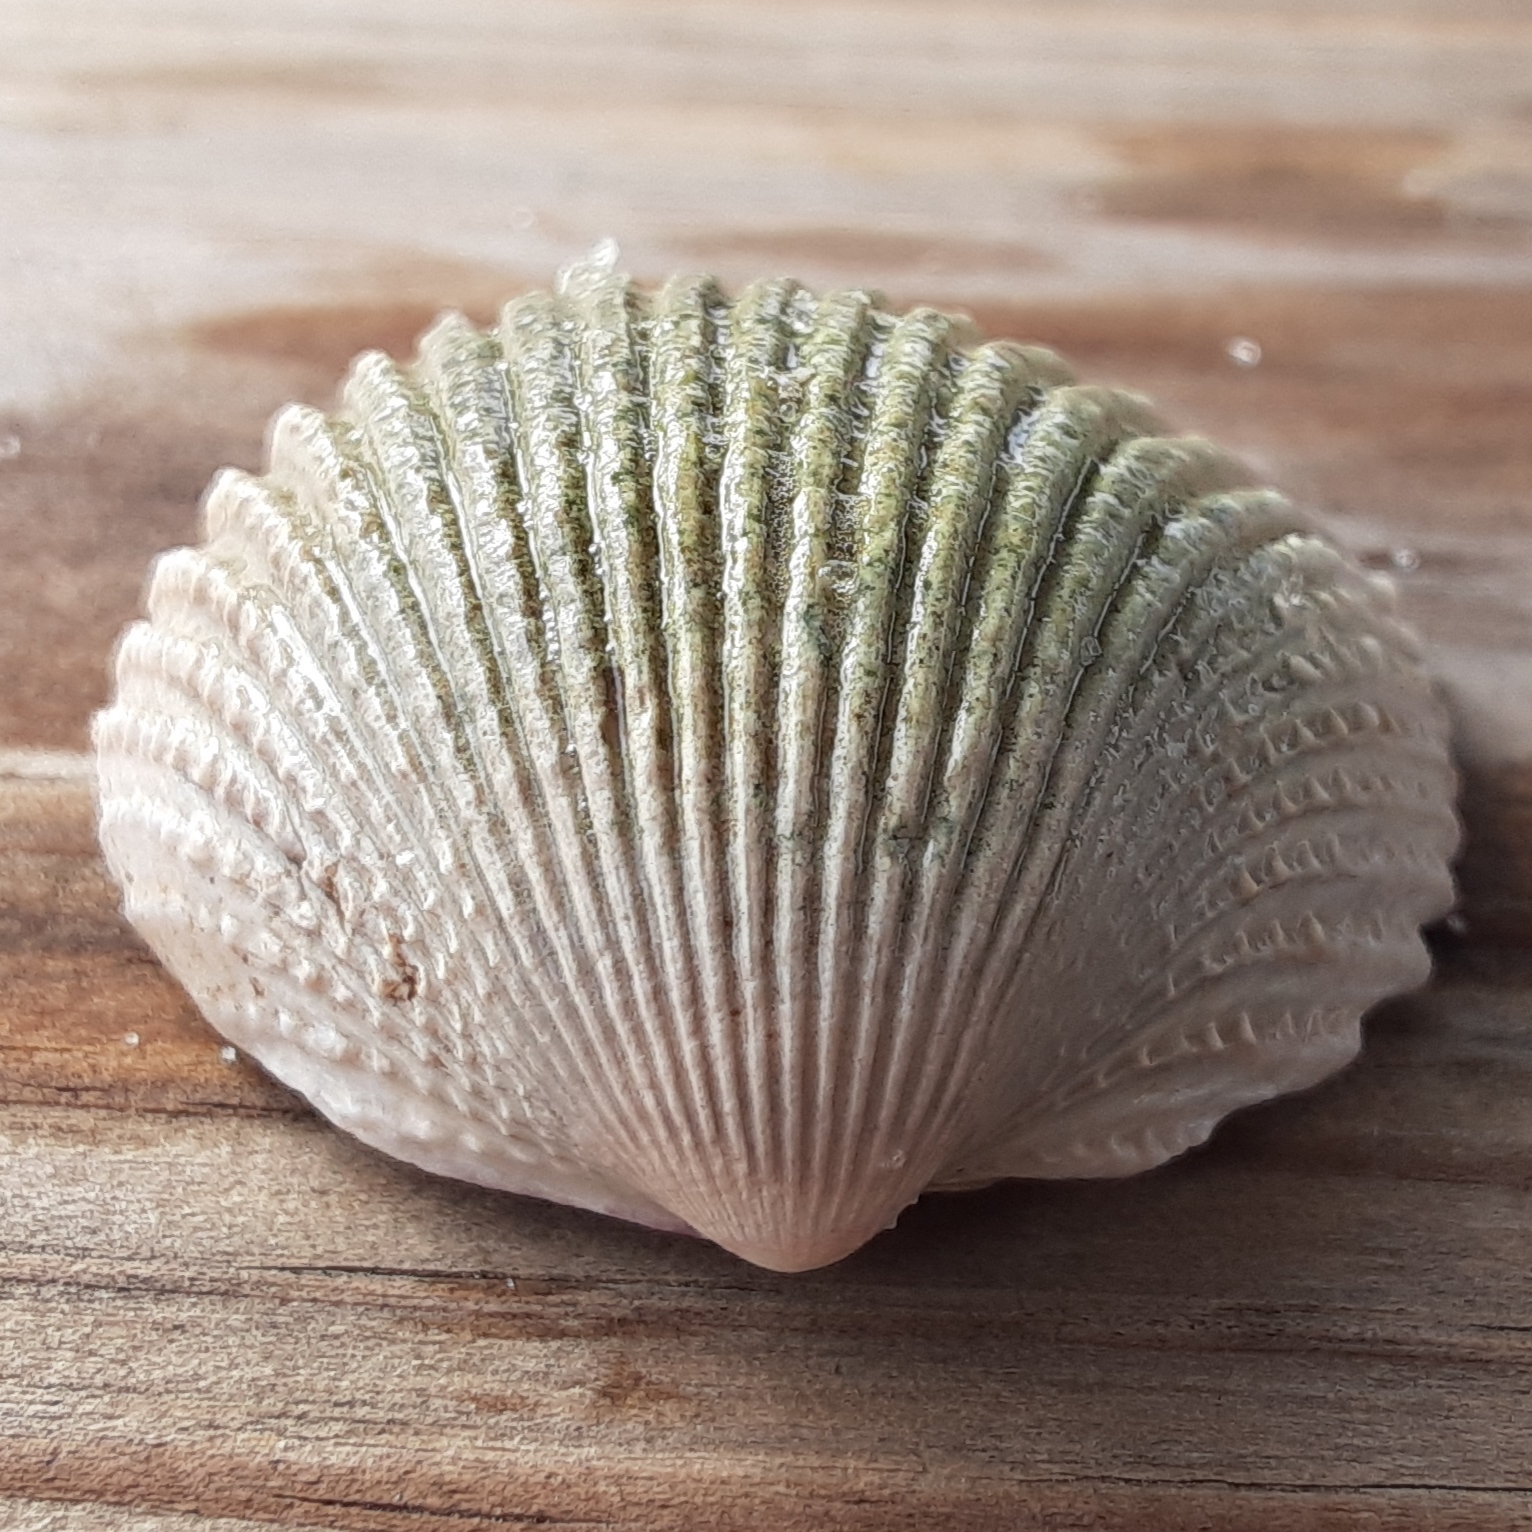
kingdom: Animalia
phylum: Mollusca
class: Bivalvia
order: Cardiida
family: Cardiidae
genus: Trachycardium
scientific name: Trachycardium egmontianum
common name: Florida pricklycockle
